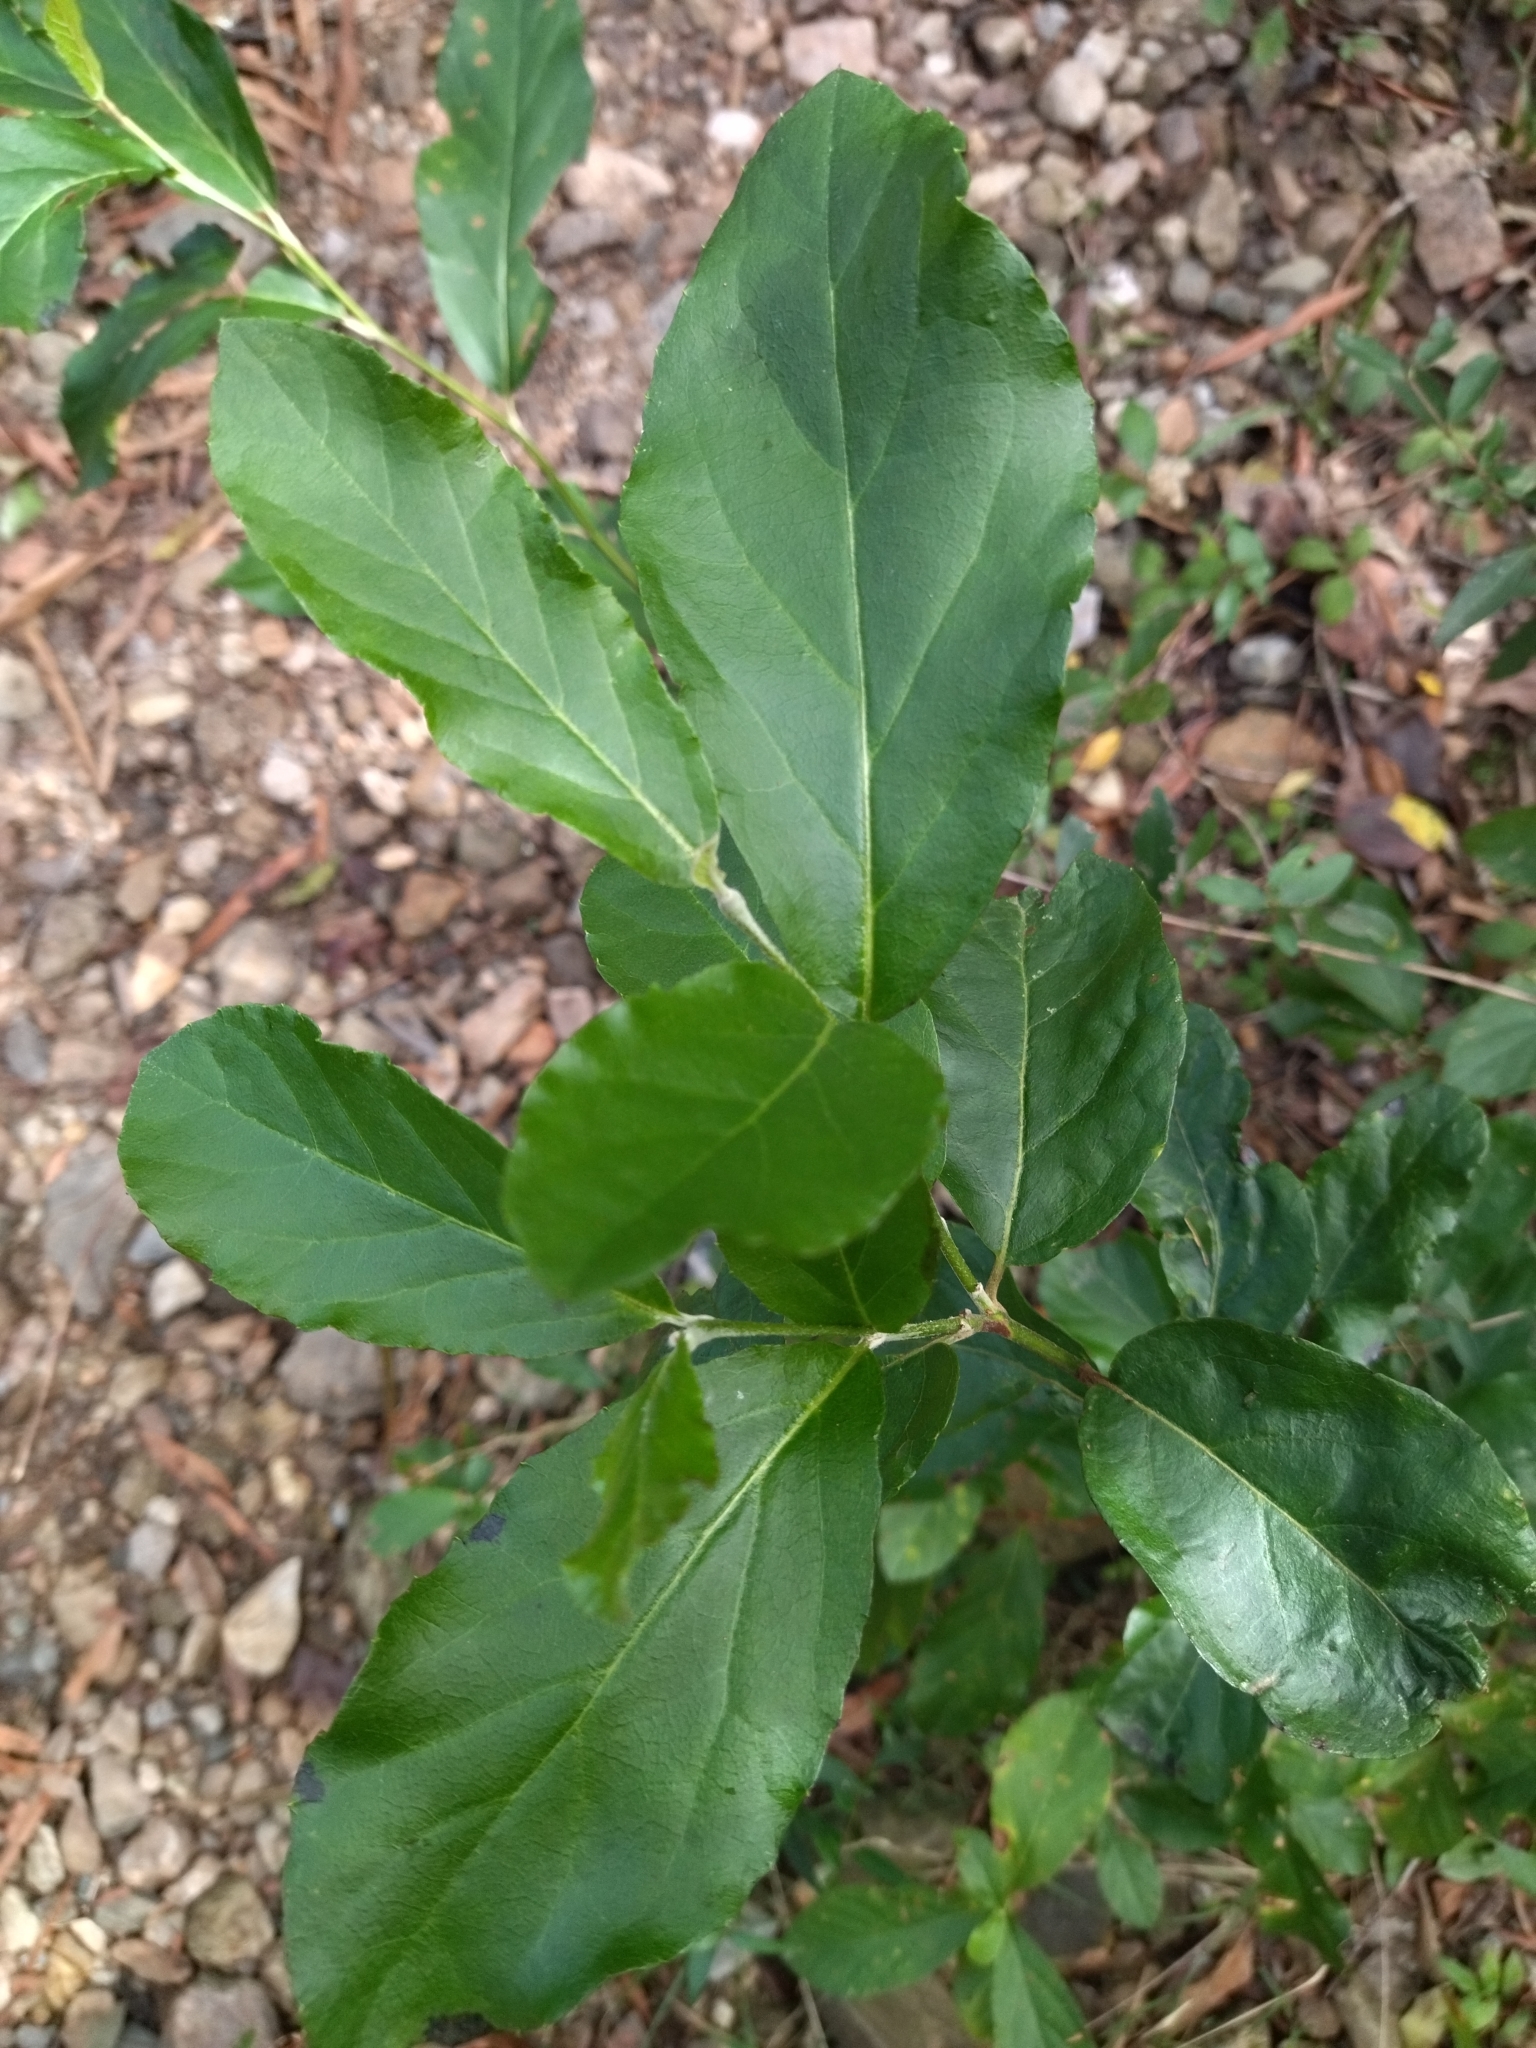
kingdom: Plantae
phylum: Tracheophyta
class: Magnoliopsida
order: Ericales
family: Styracaceae
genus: Styrax
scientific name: Styrax leprosus
